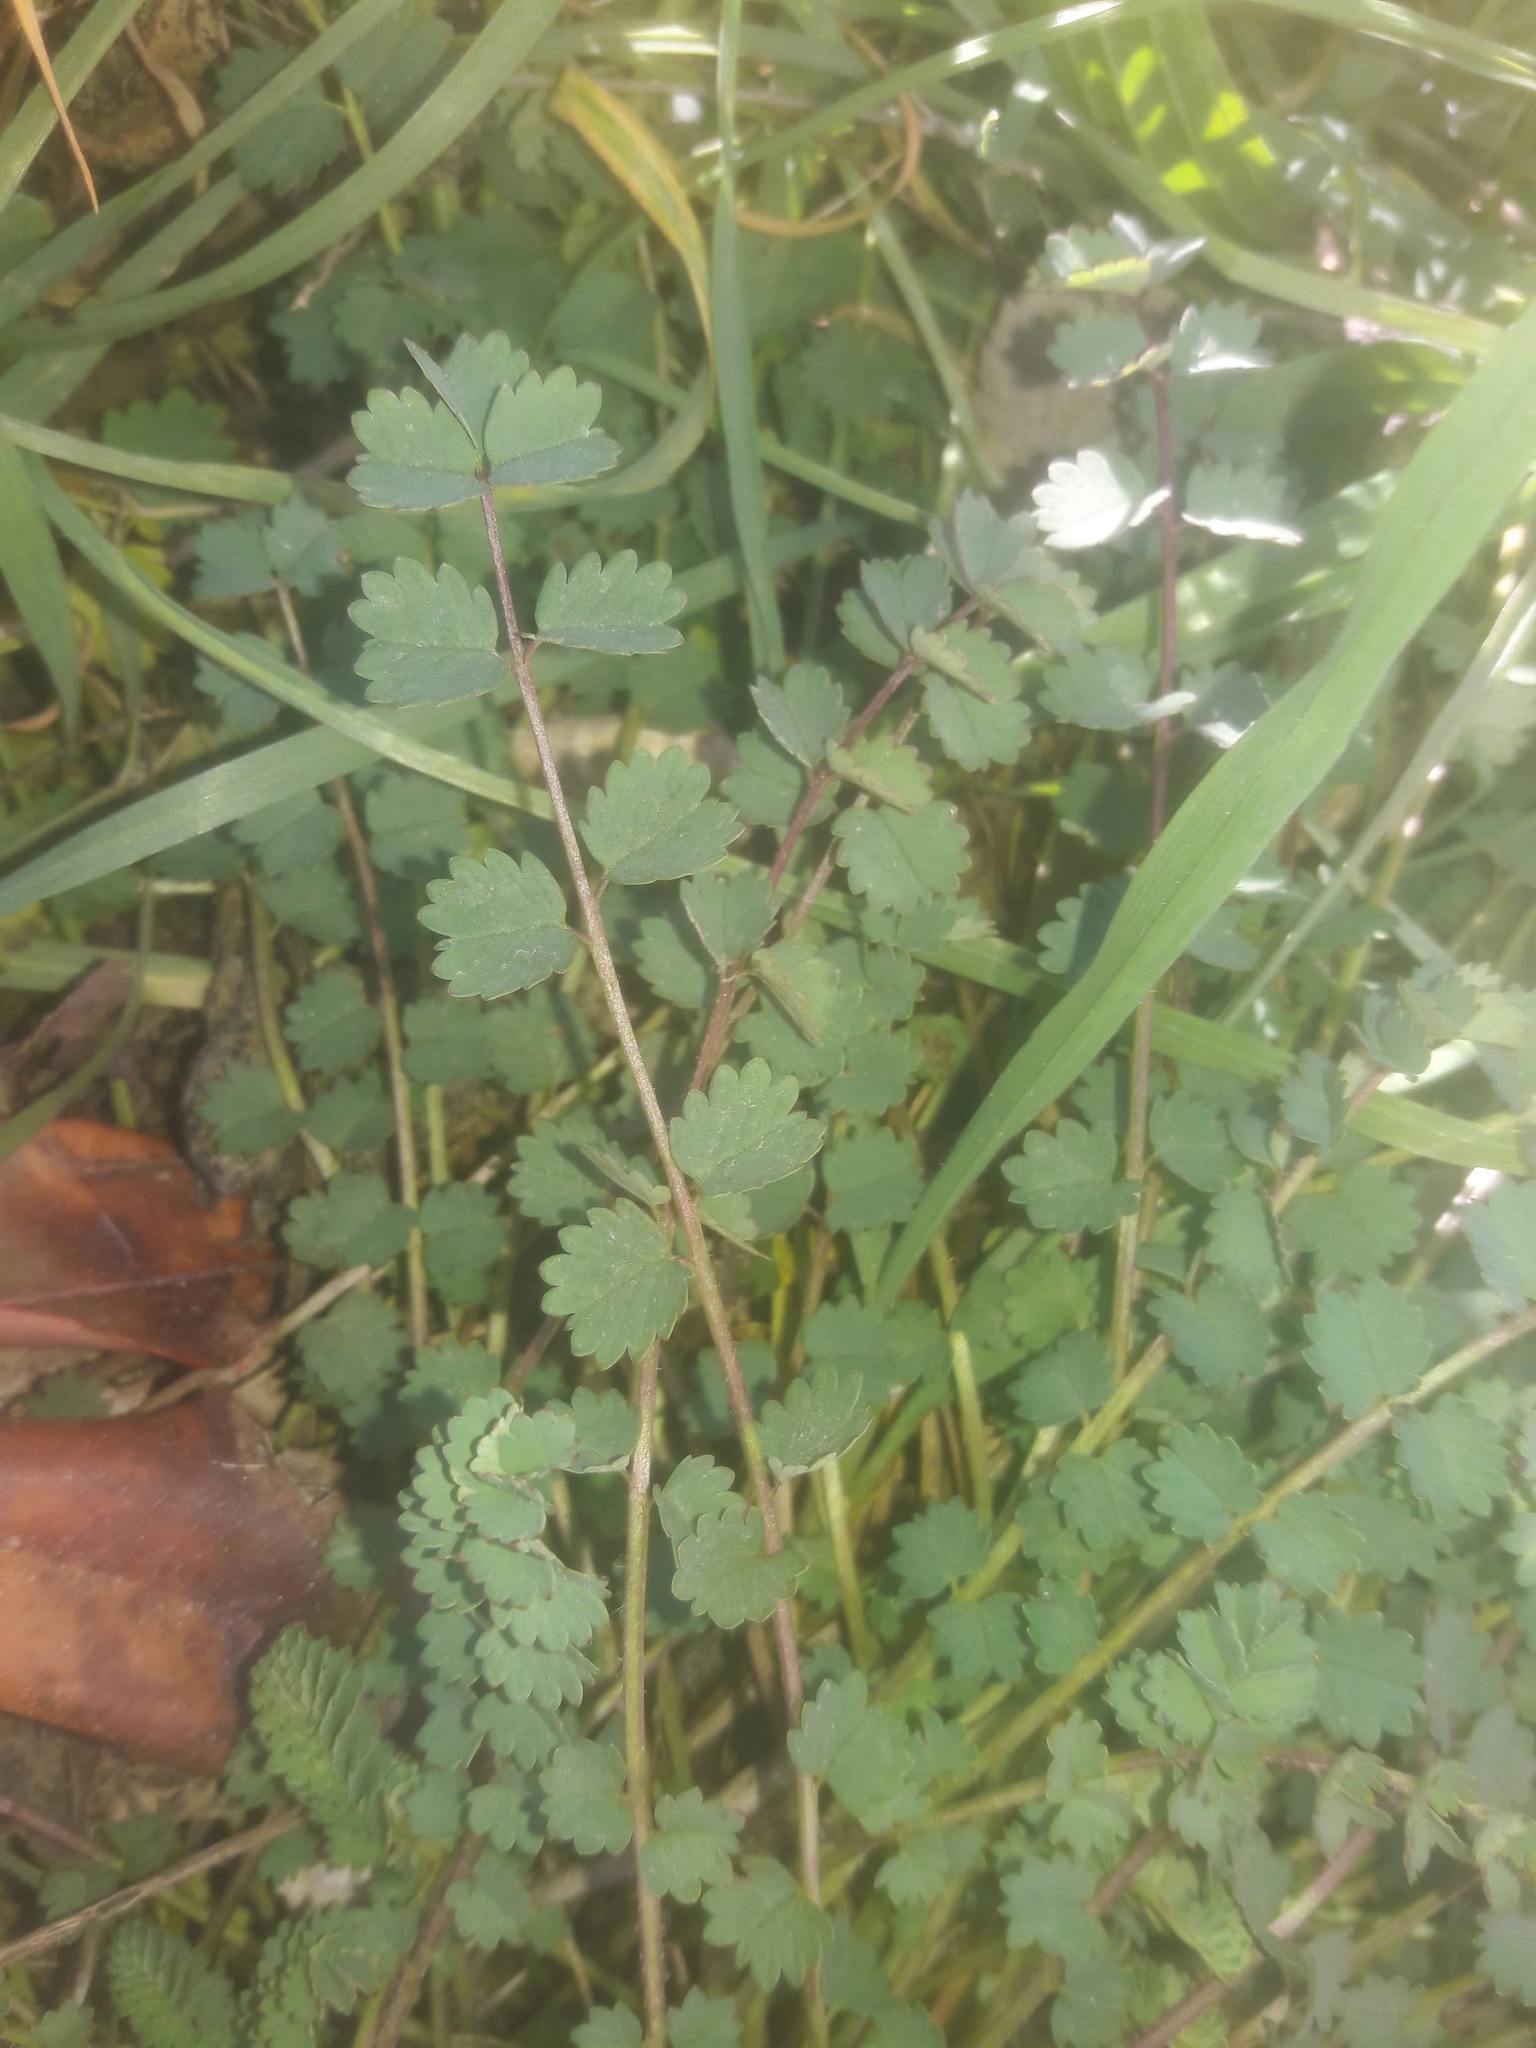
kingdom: Plantae
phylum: Tracheophyta
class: Magnoliopsida
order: Rosales
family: Rosaceae
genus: Poterium
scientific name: Poterium sanguisorba
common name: Salad burnet
